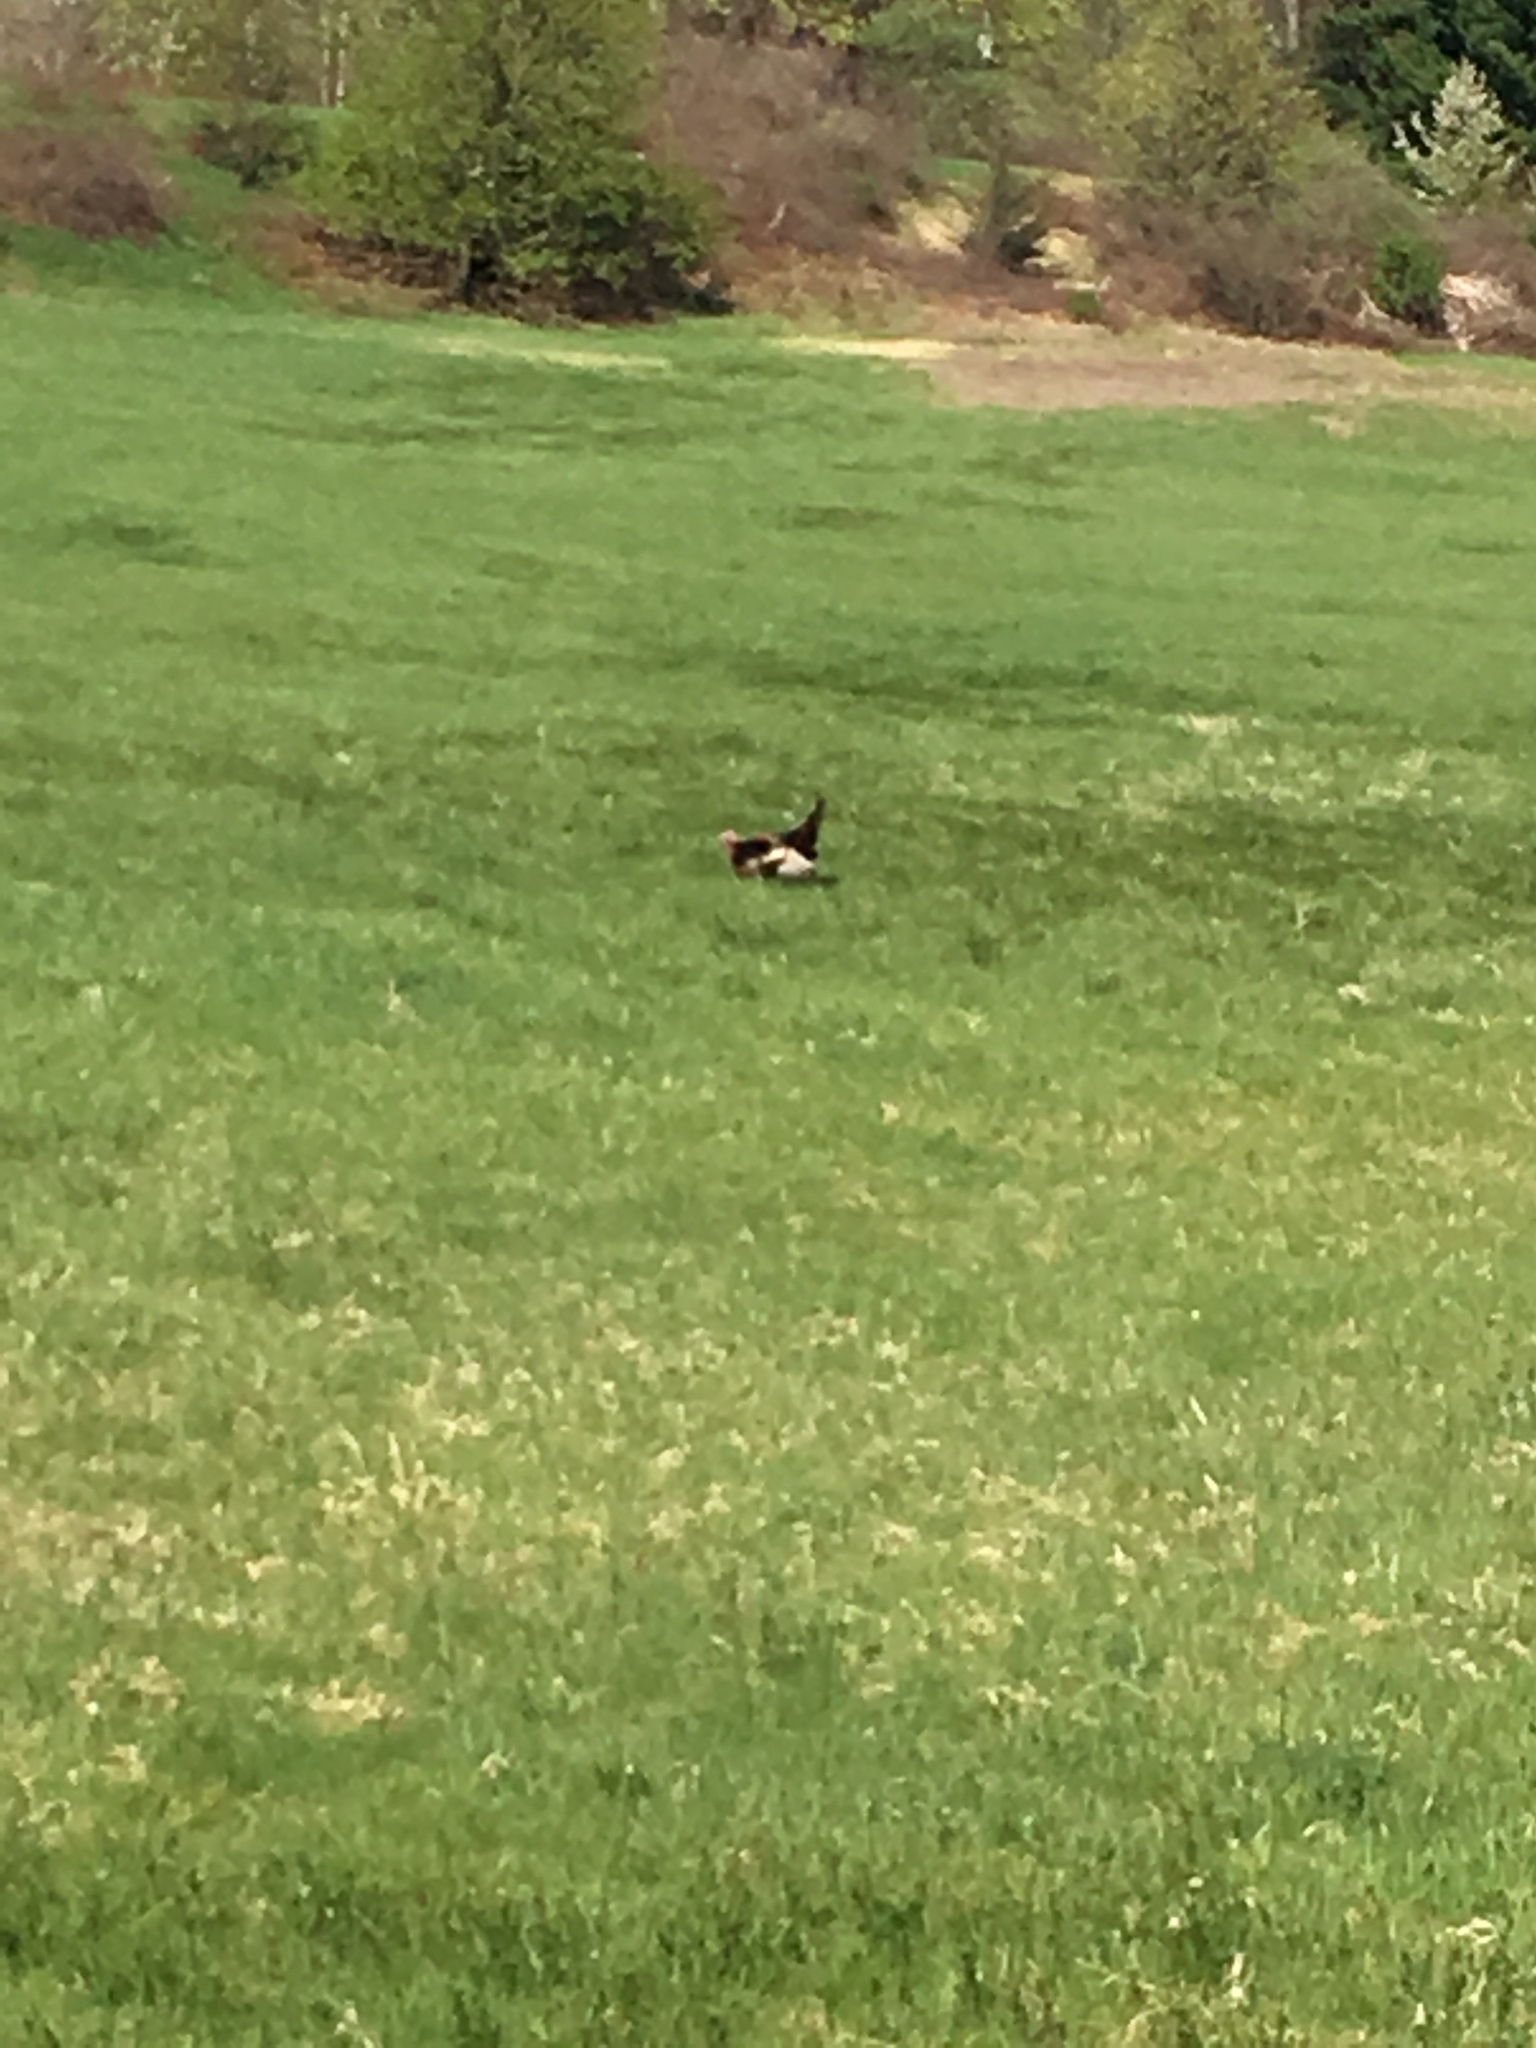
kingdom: Animalia
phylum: Chordata
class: Aves
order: Galliformes
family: Phasianidae
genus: Meleagris
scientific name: Meleagris gallopavo
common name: Wild turkey
